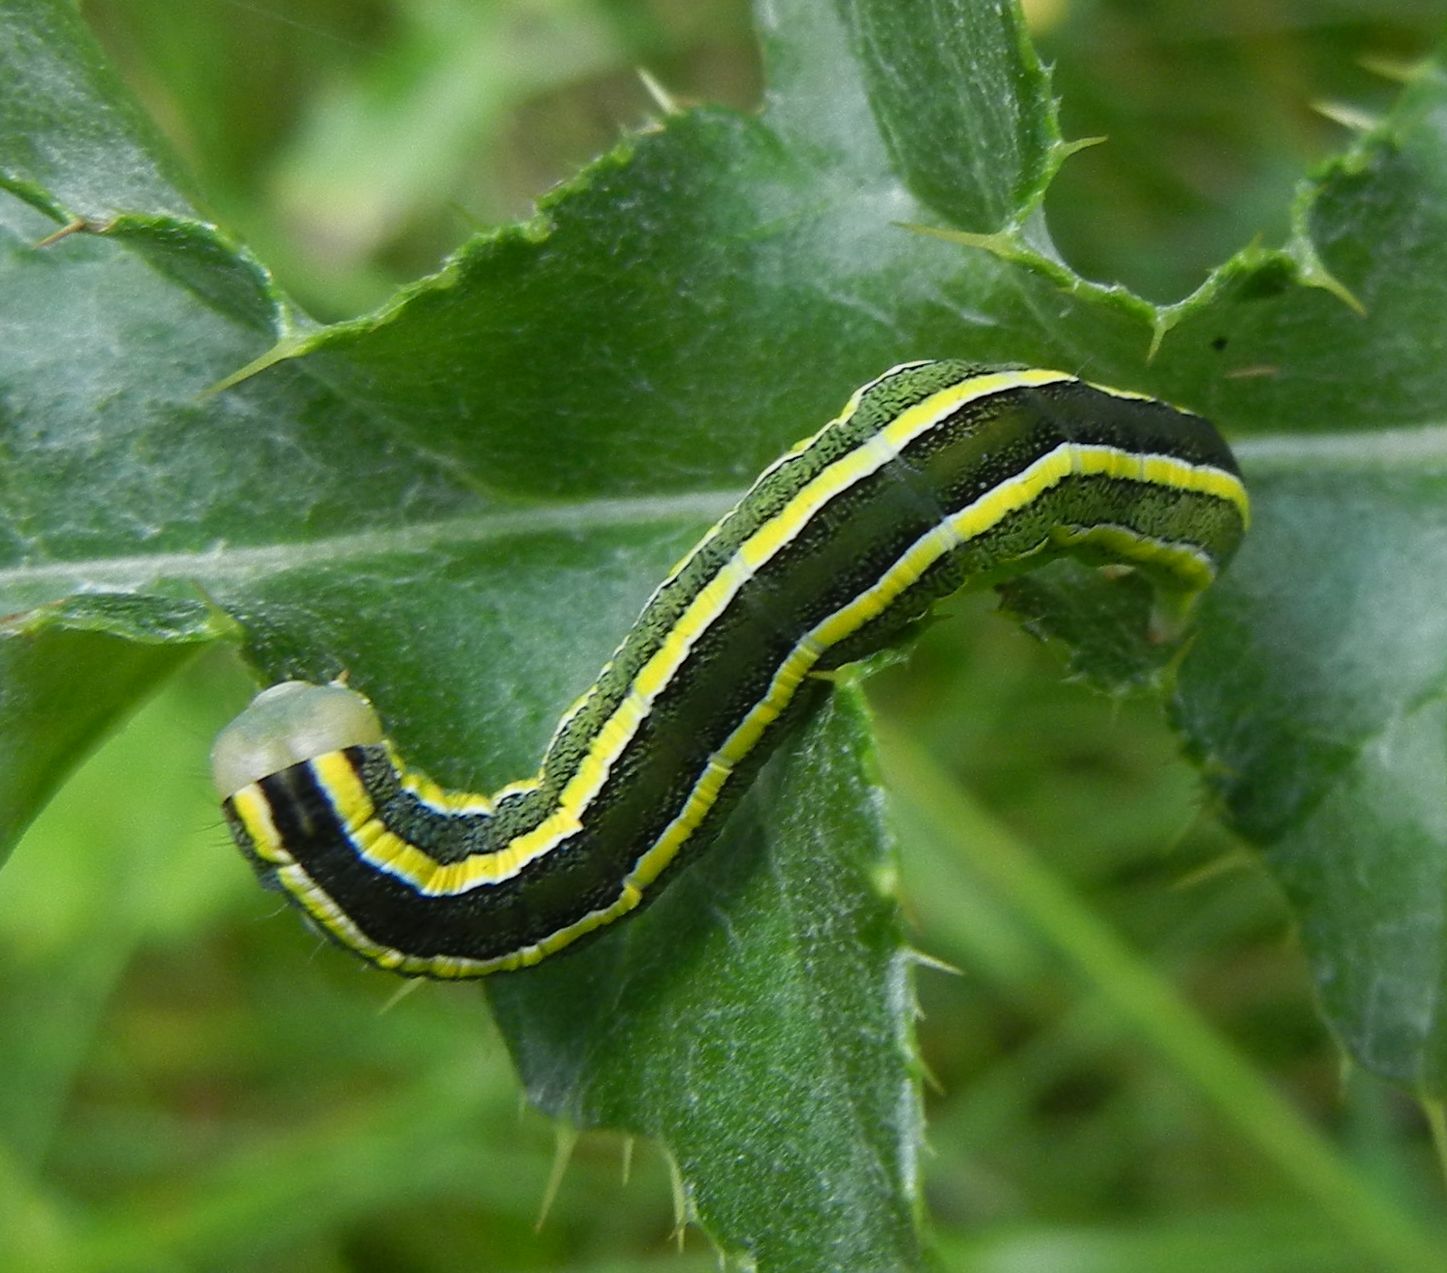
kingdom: Animalia
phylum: Arthropoda
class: Insecta
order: Lepidoptera
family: Noctuidae
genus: Ceramica
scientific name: Ceramica pisi
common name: Broom moth
